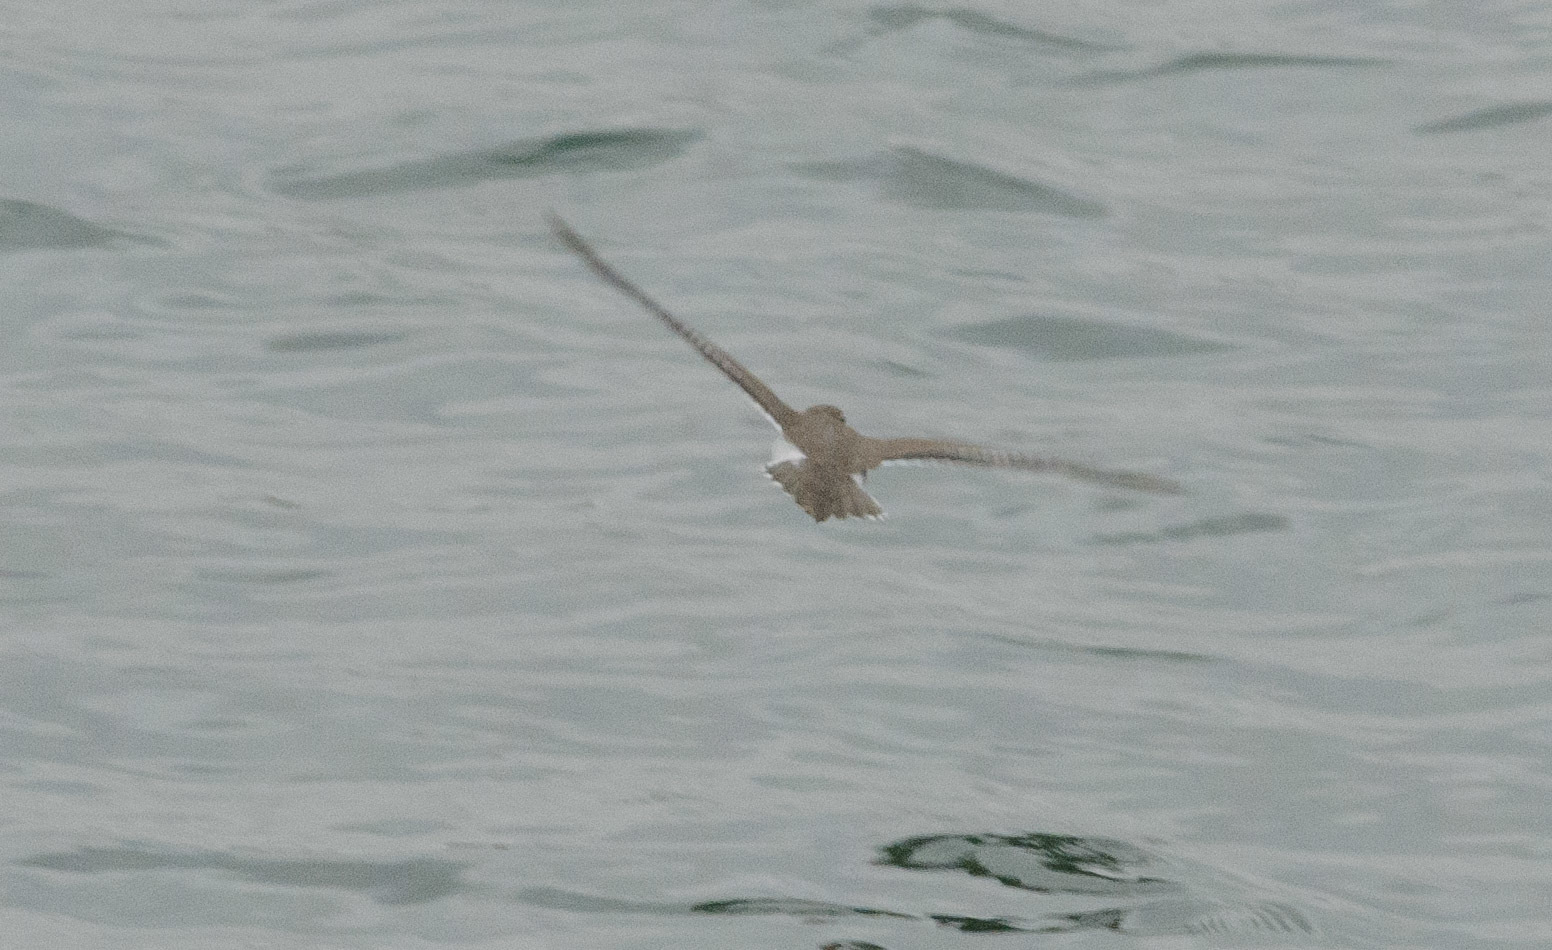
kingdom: Animalia
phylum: Chordata
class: Aves
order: Charadriiformes
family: Scolopacidae
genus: Actitis
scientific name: Actitis macularius
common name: Spotted sandpiper
